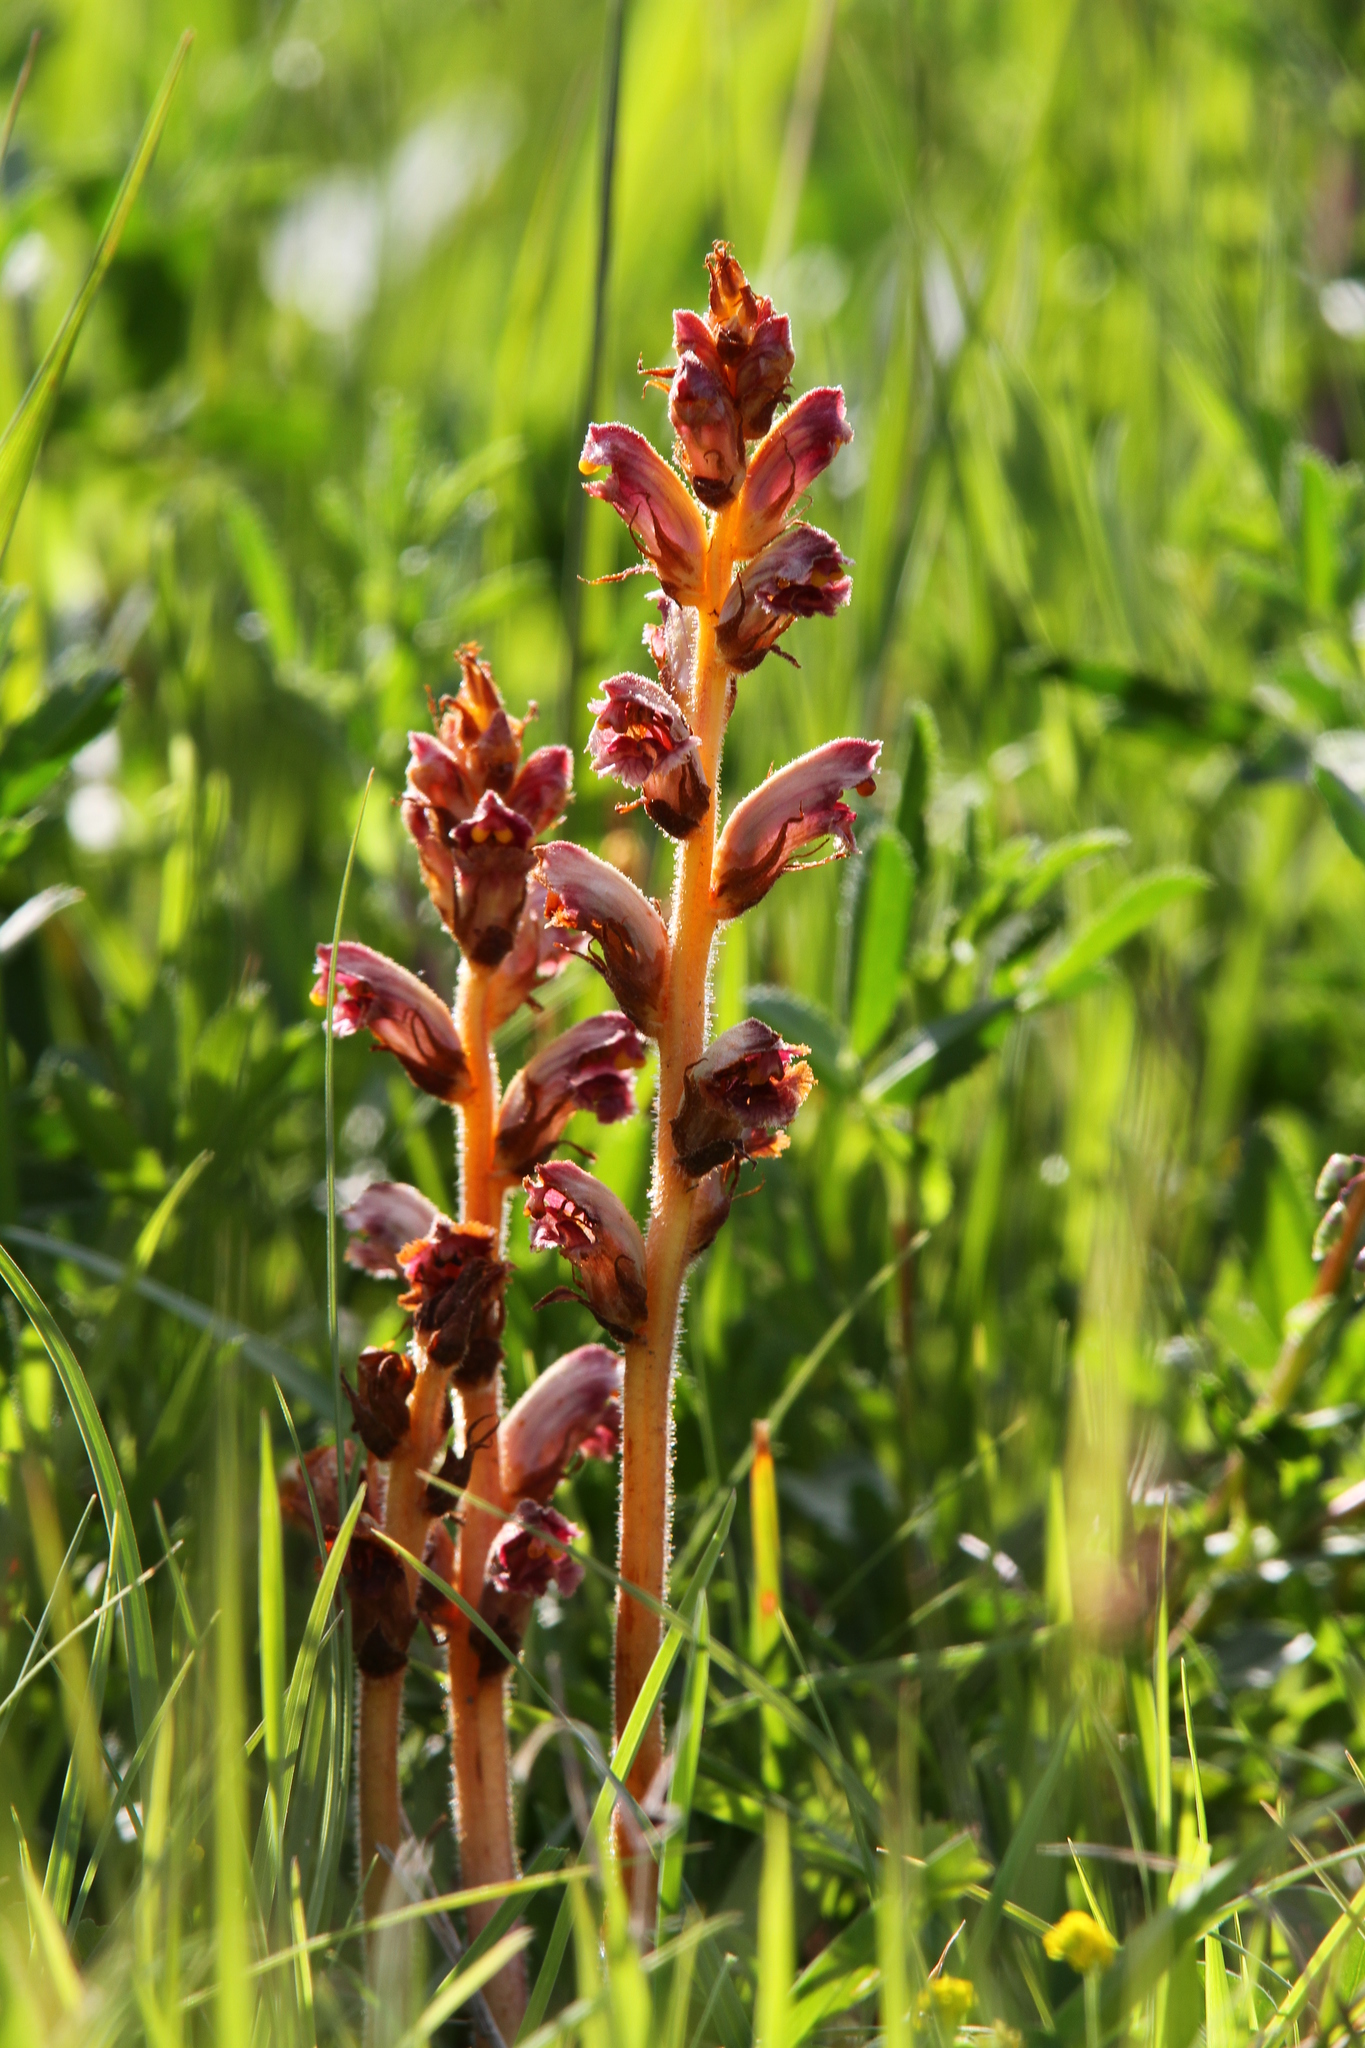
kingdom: Plantae
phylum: Tracheophyta
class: Magnoliopsida
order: Lamiales
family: Orobanchaceae
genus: Orobanche
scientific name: Orobanche gracilis
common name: Slender broomrape
